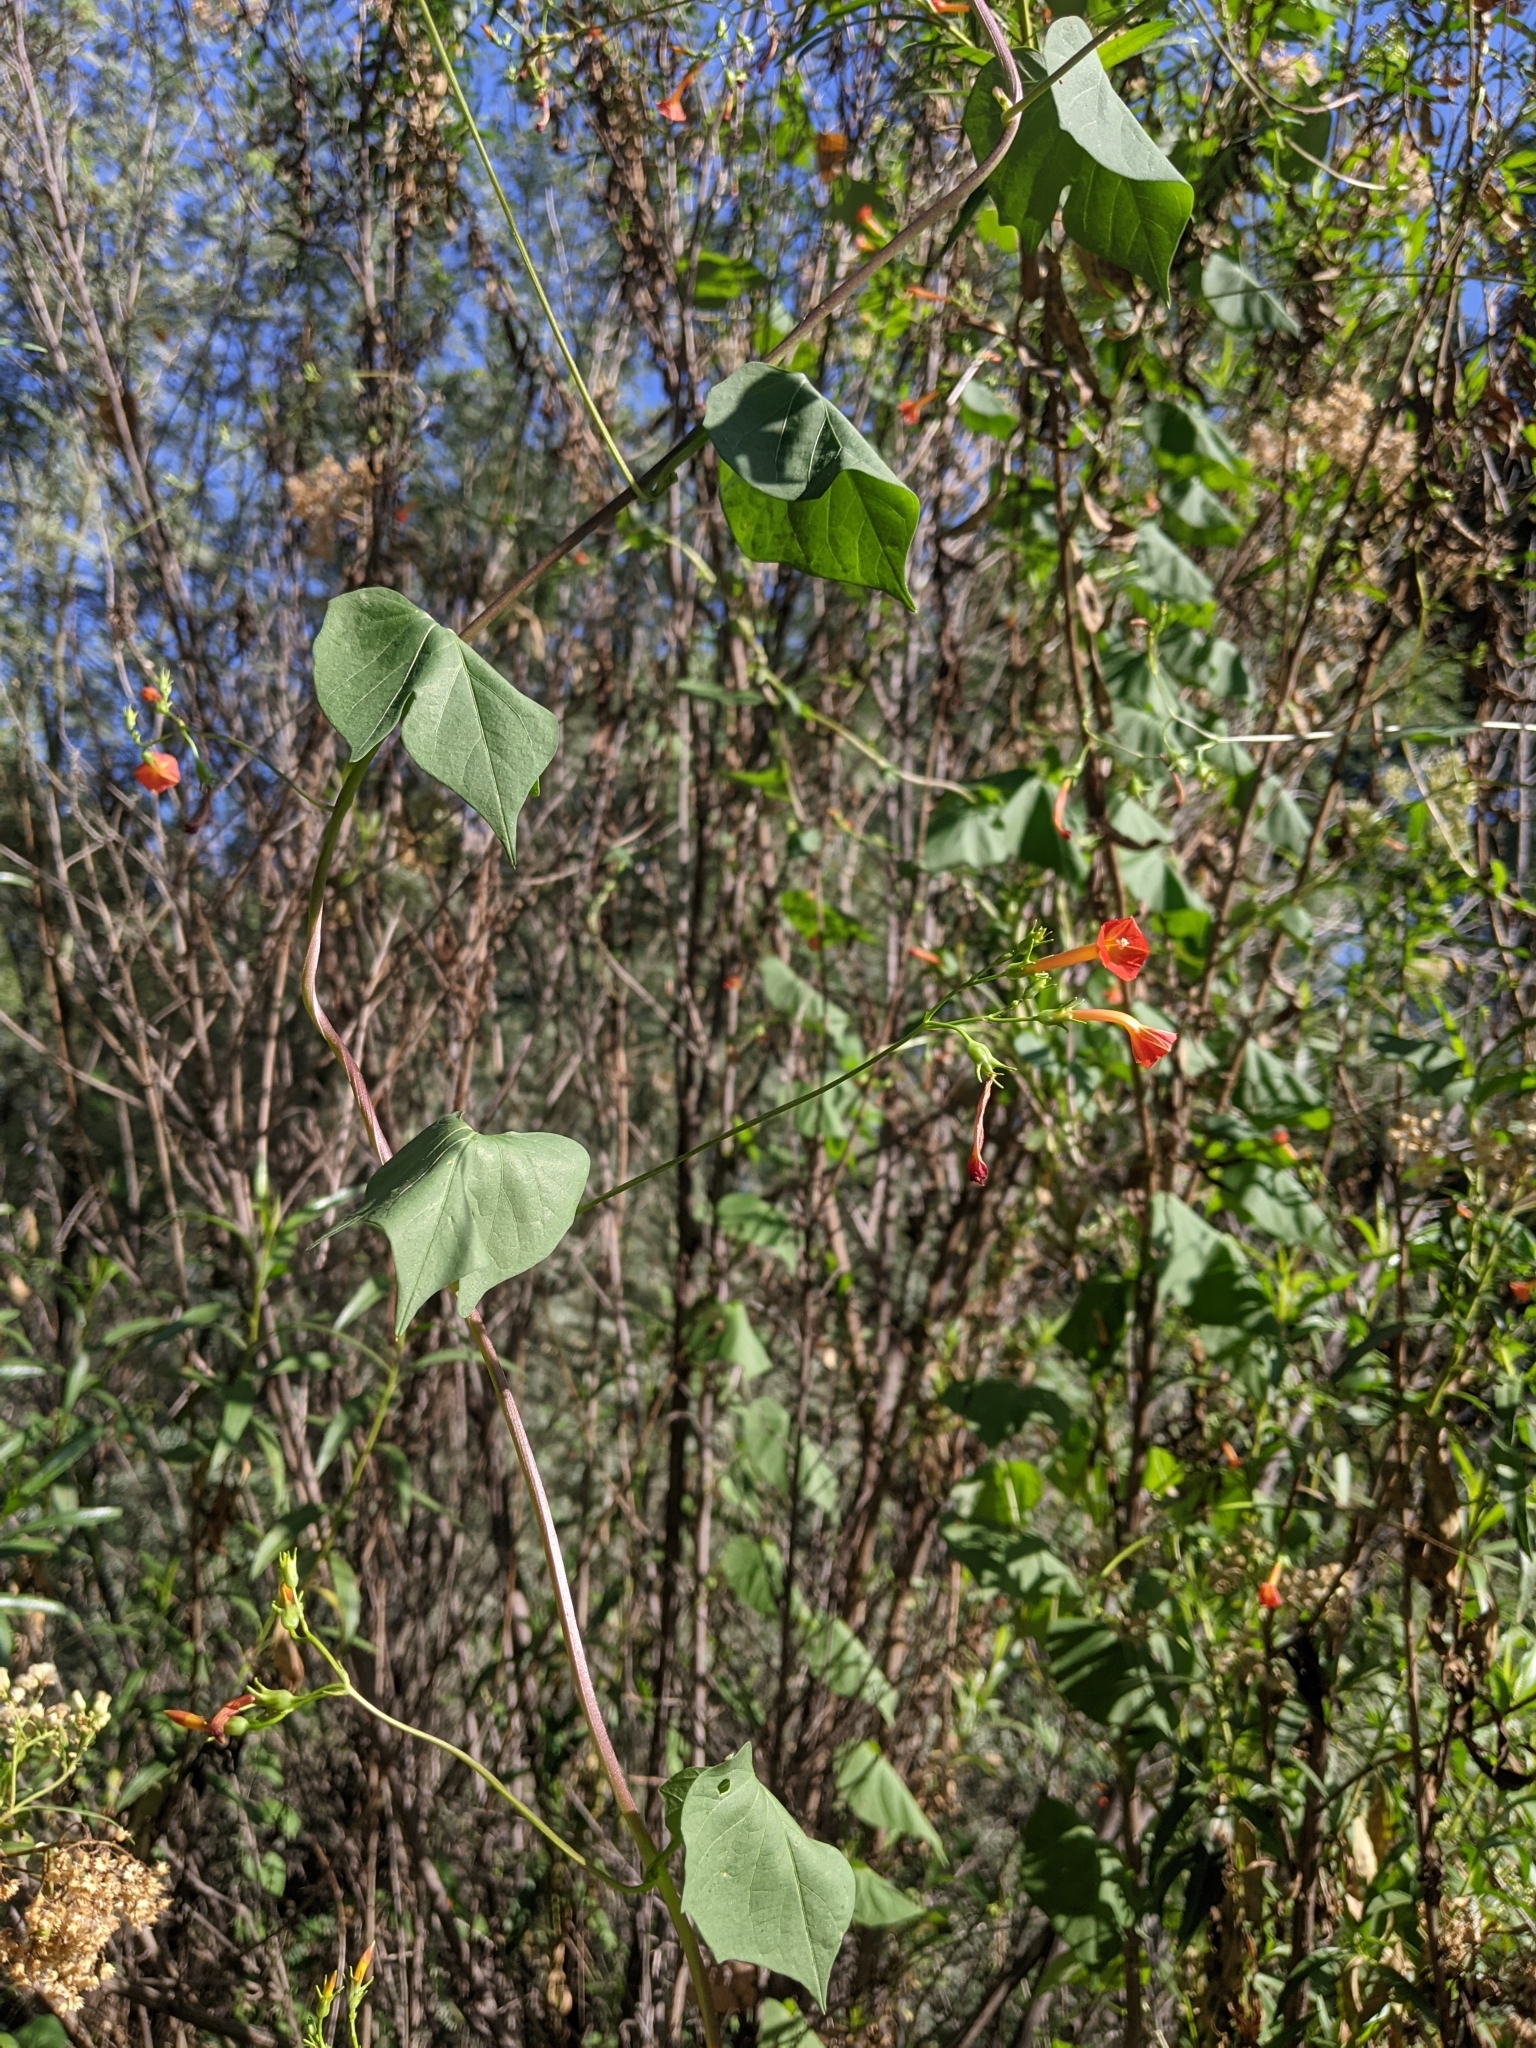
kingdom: Plantae
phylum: Tracheophyta
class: Magnoliopsida
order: Solanales
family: Convolvulaceae
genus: Ipomoea
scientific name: Ipomoea cristulata
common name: Trans-pecos morning-glory
